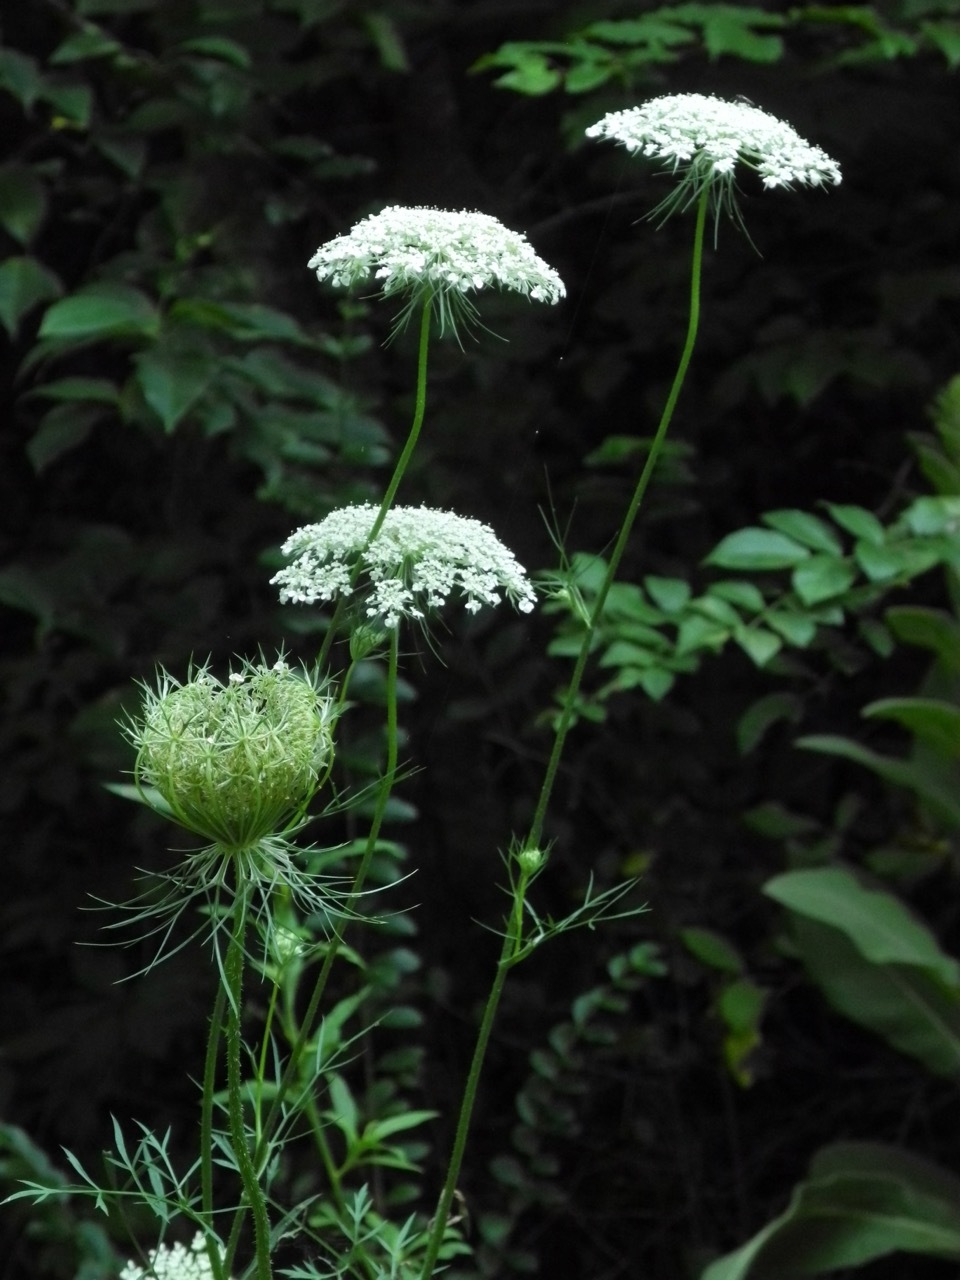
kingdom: Plantae
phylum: Tracheophyta
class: Magnoliopsida
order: Apiales
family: Apiaceae
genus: Daucus
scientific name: Daucus carota
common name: Wild carrot
